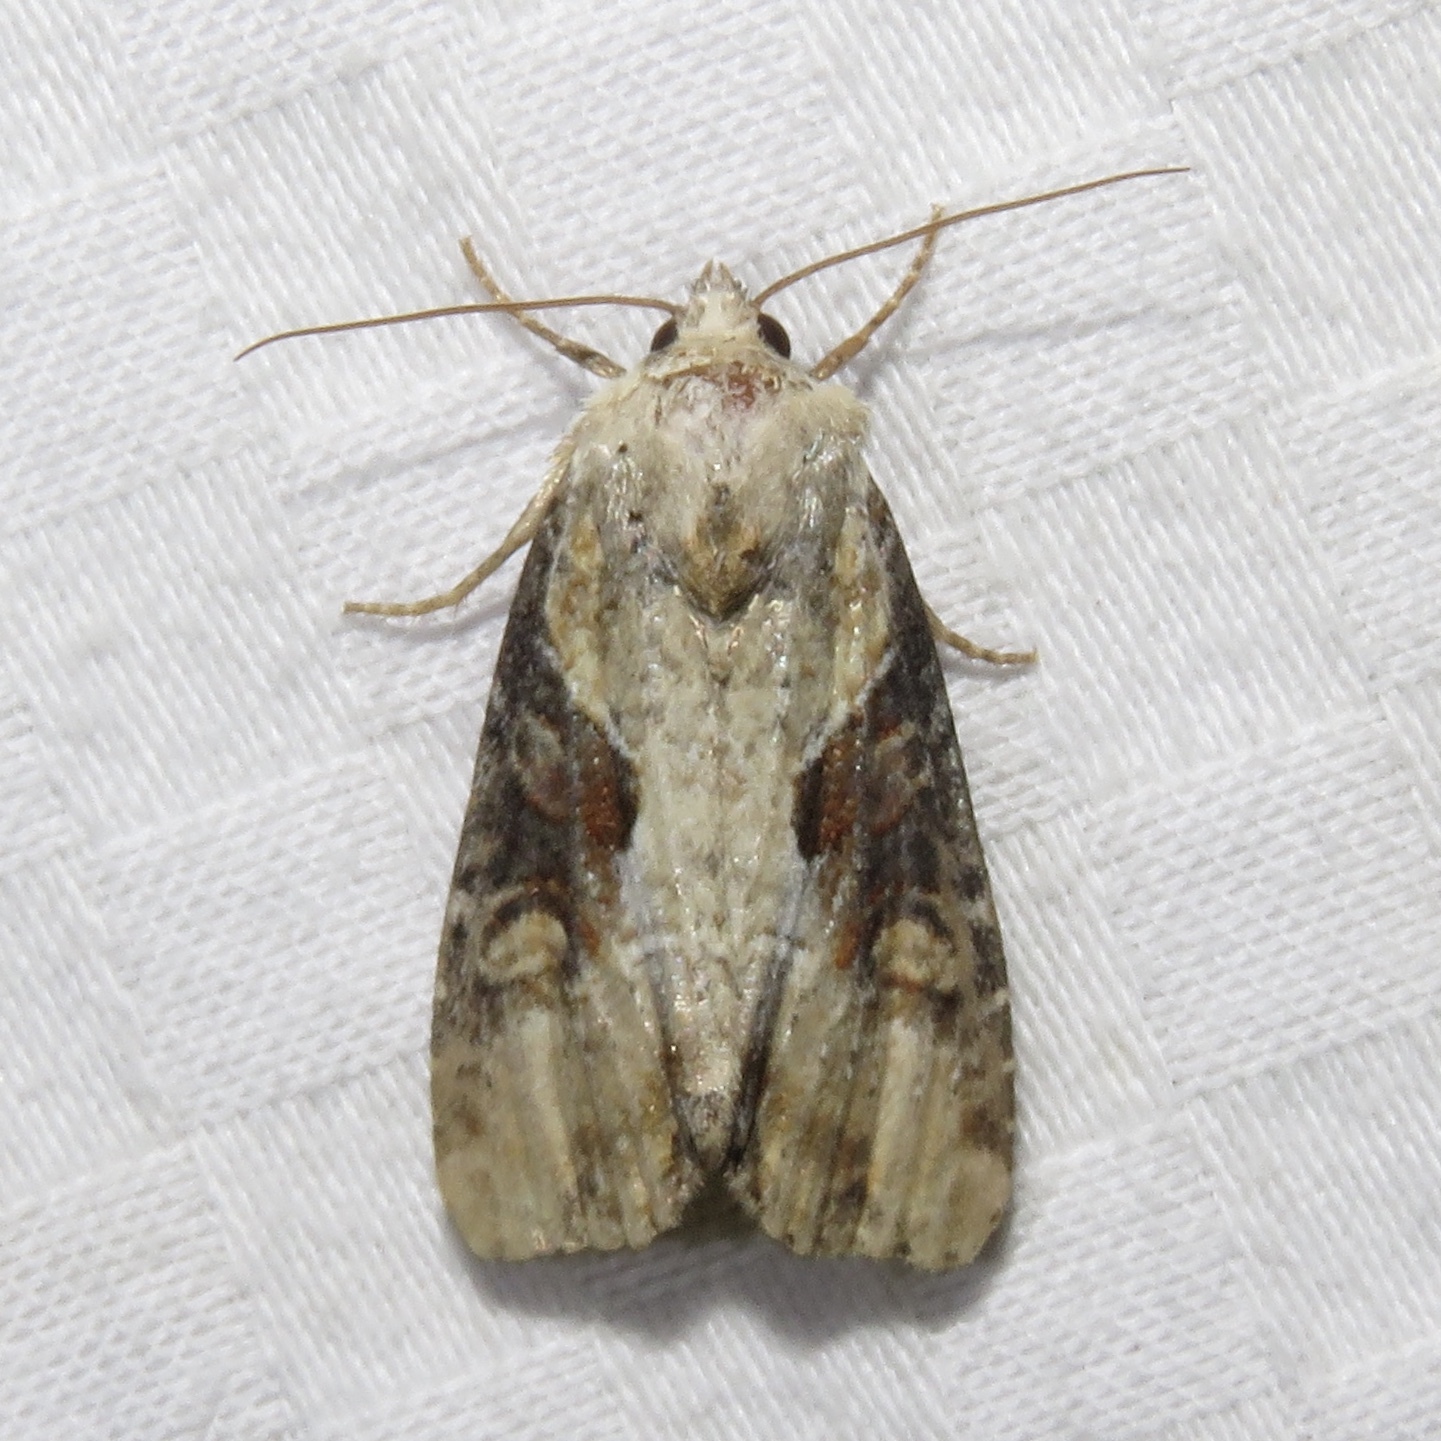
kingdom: Animalia
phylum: Arthropoda
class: Insecta
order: Lepidoptera
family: Noctuidae
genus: Lateroligia
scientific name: Lateroligia ophiogramma
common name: Double lobed
